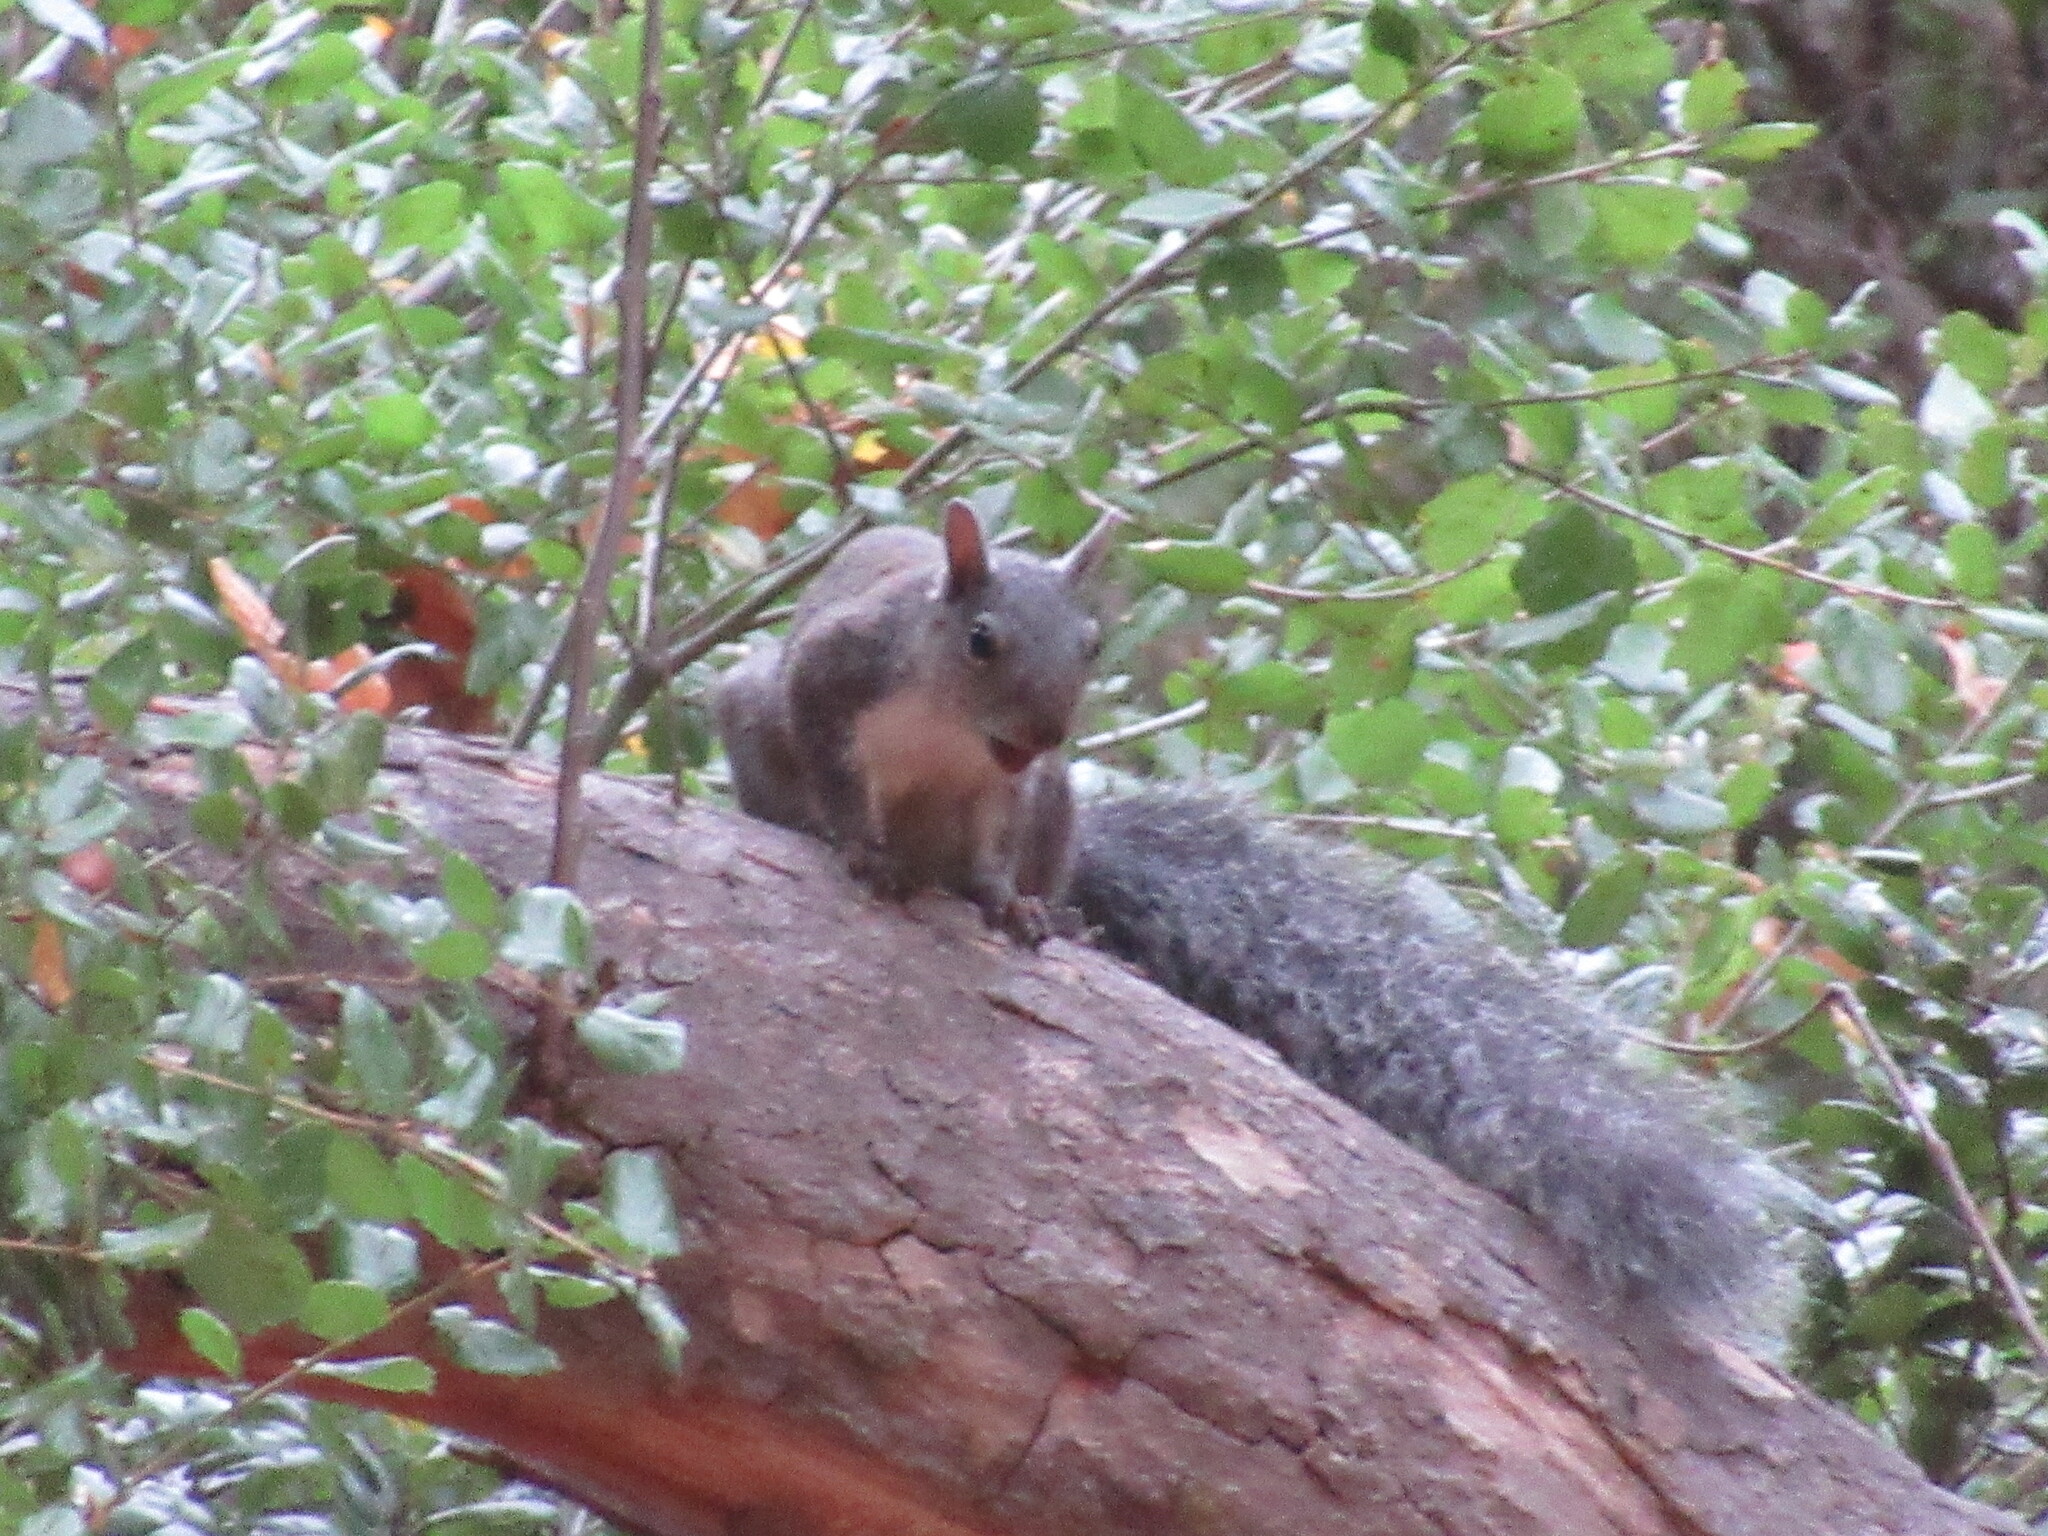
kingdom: Animalia
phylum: Chordata
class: Mammalia
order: Rodentia
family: Sciuridae
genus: Sciurus
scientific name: Sciurus griseus
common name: Western gray squirrel
